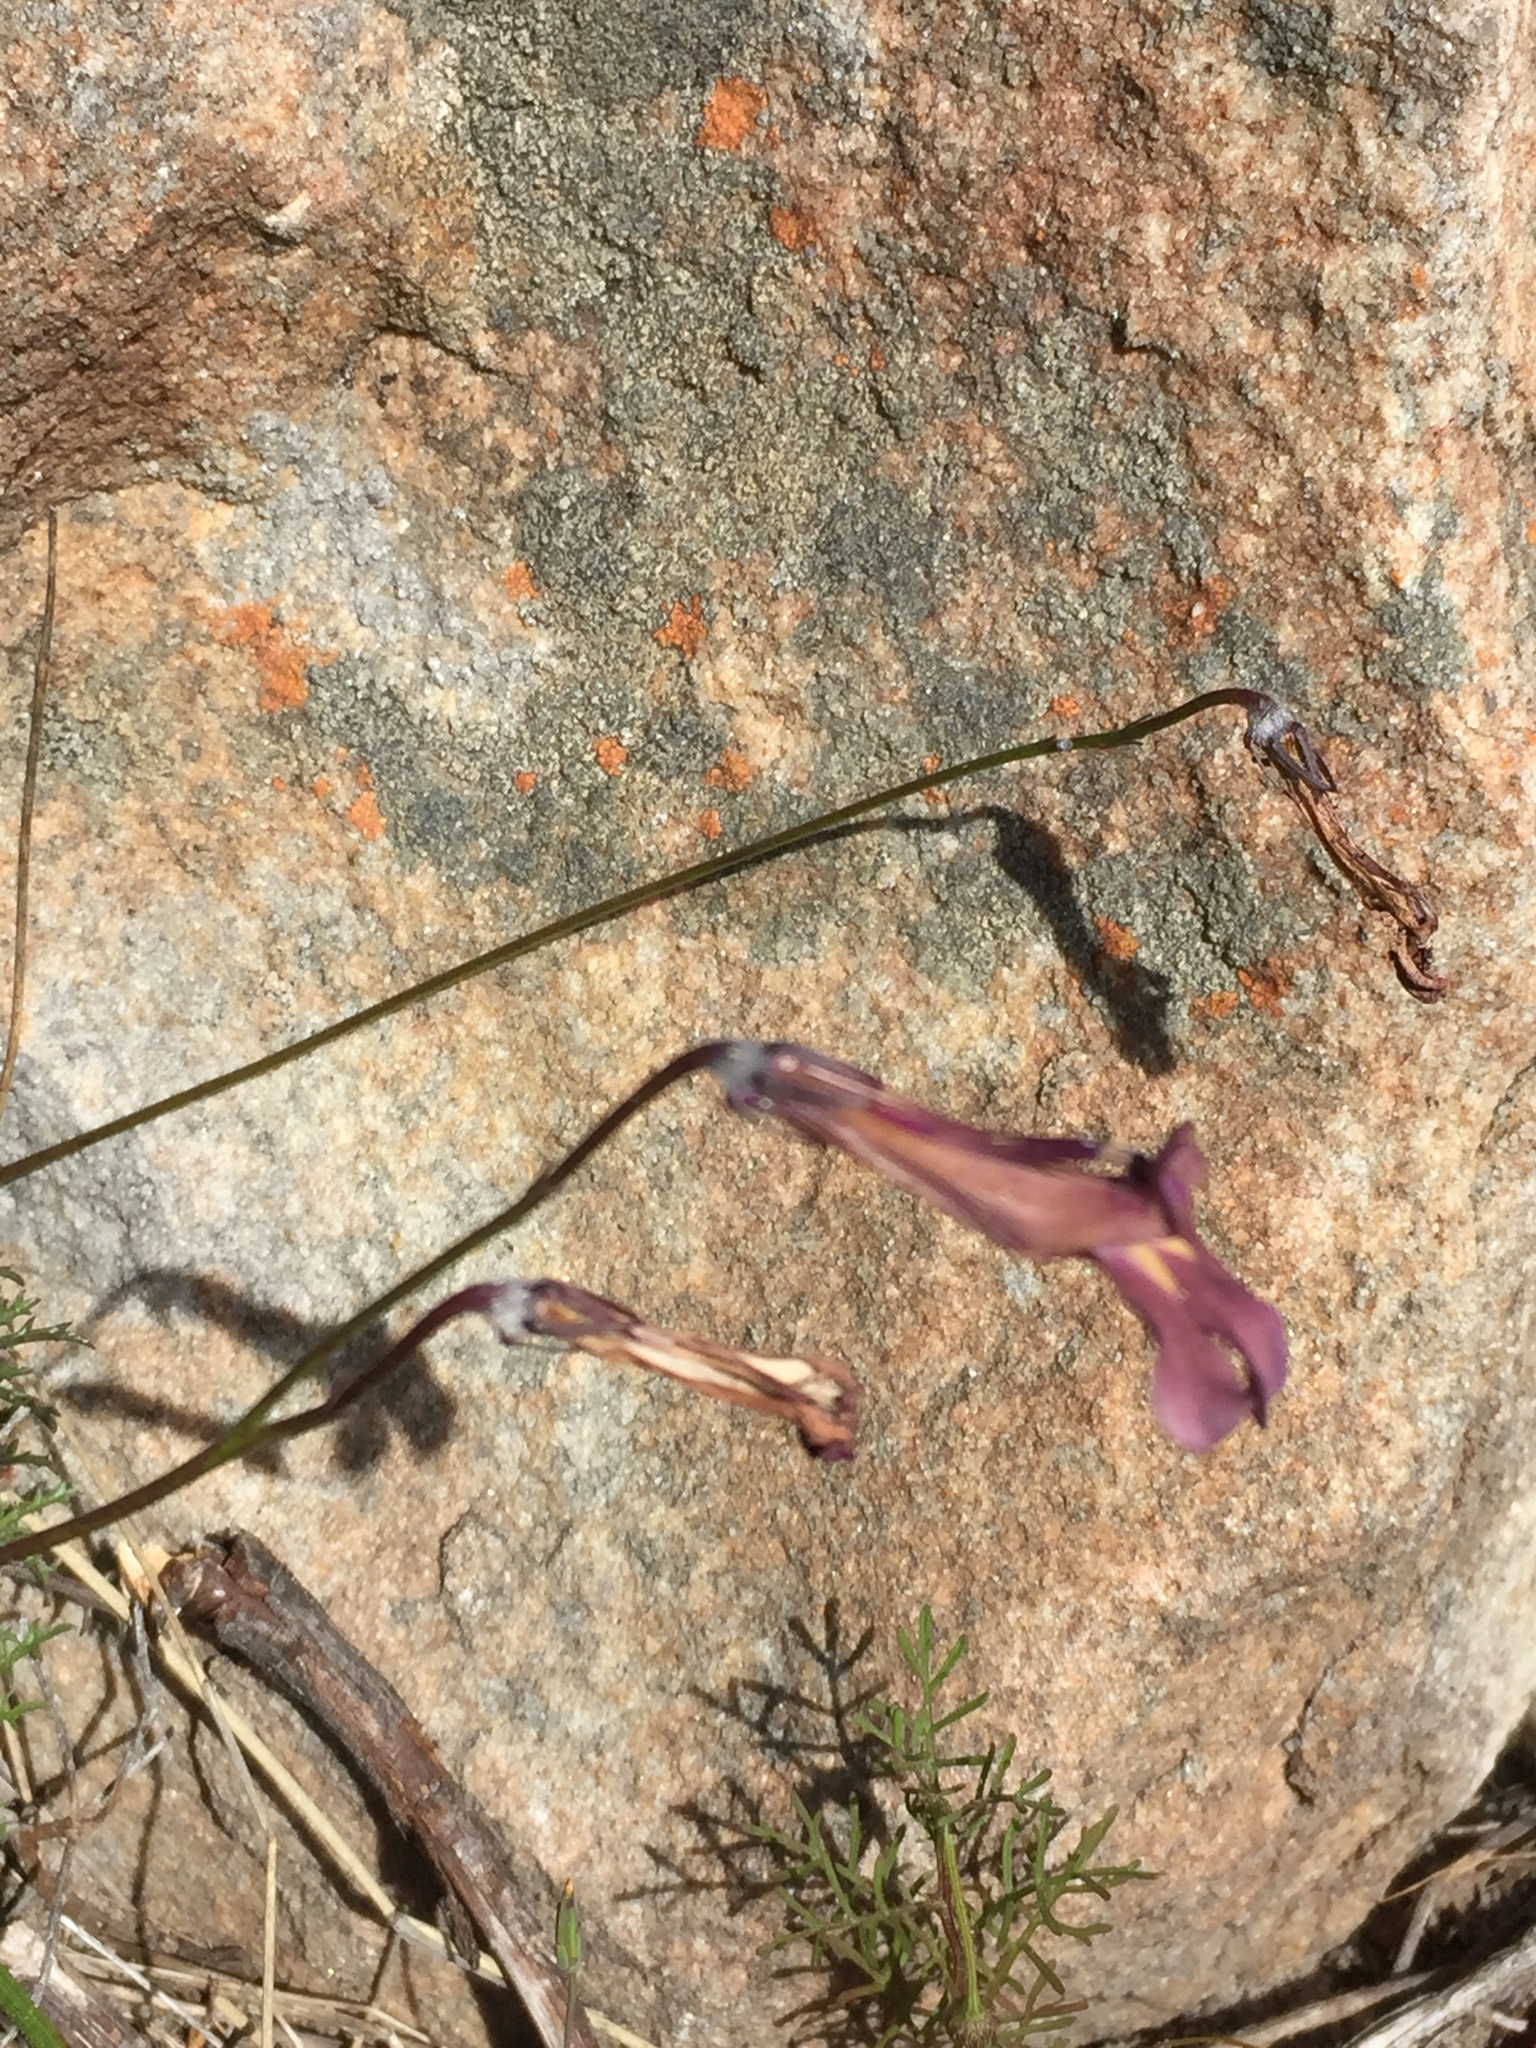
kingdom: Plantae
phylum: Tracheophyta
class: Magnoliopsida
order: Asterales
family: Campanulaceae
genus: Lobelia
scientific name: Lobelia coronopifolia
